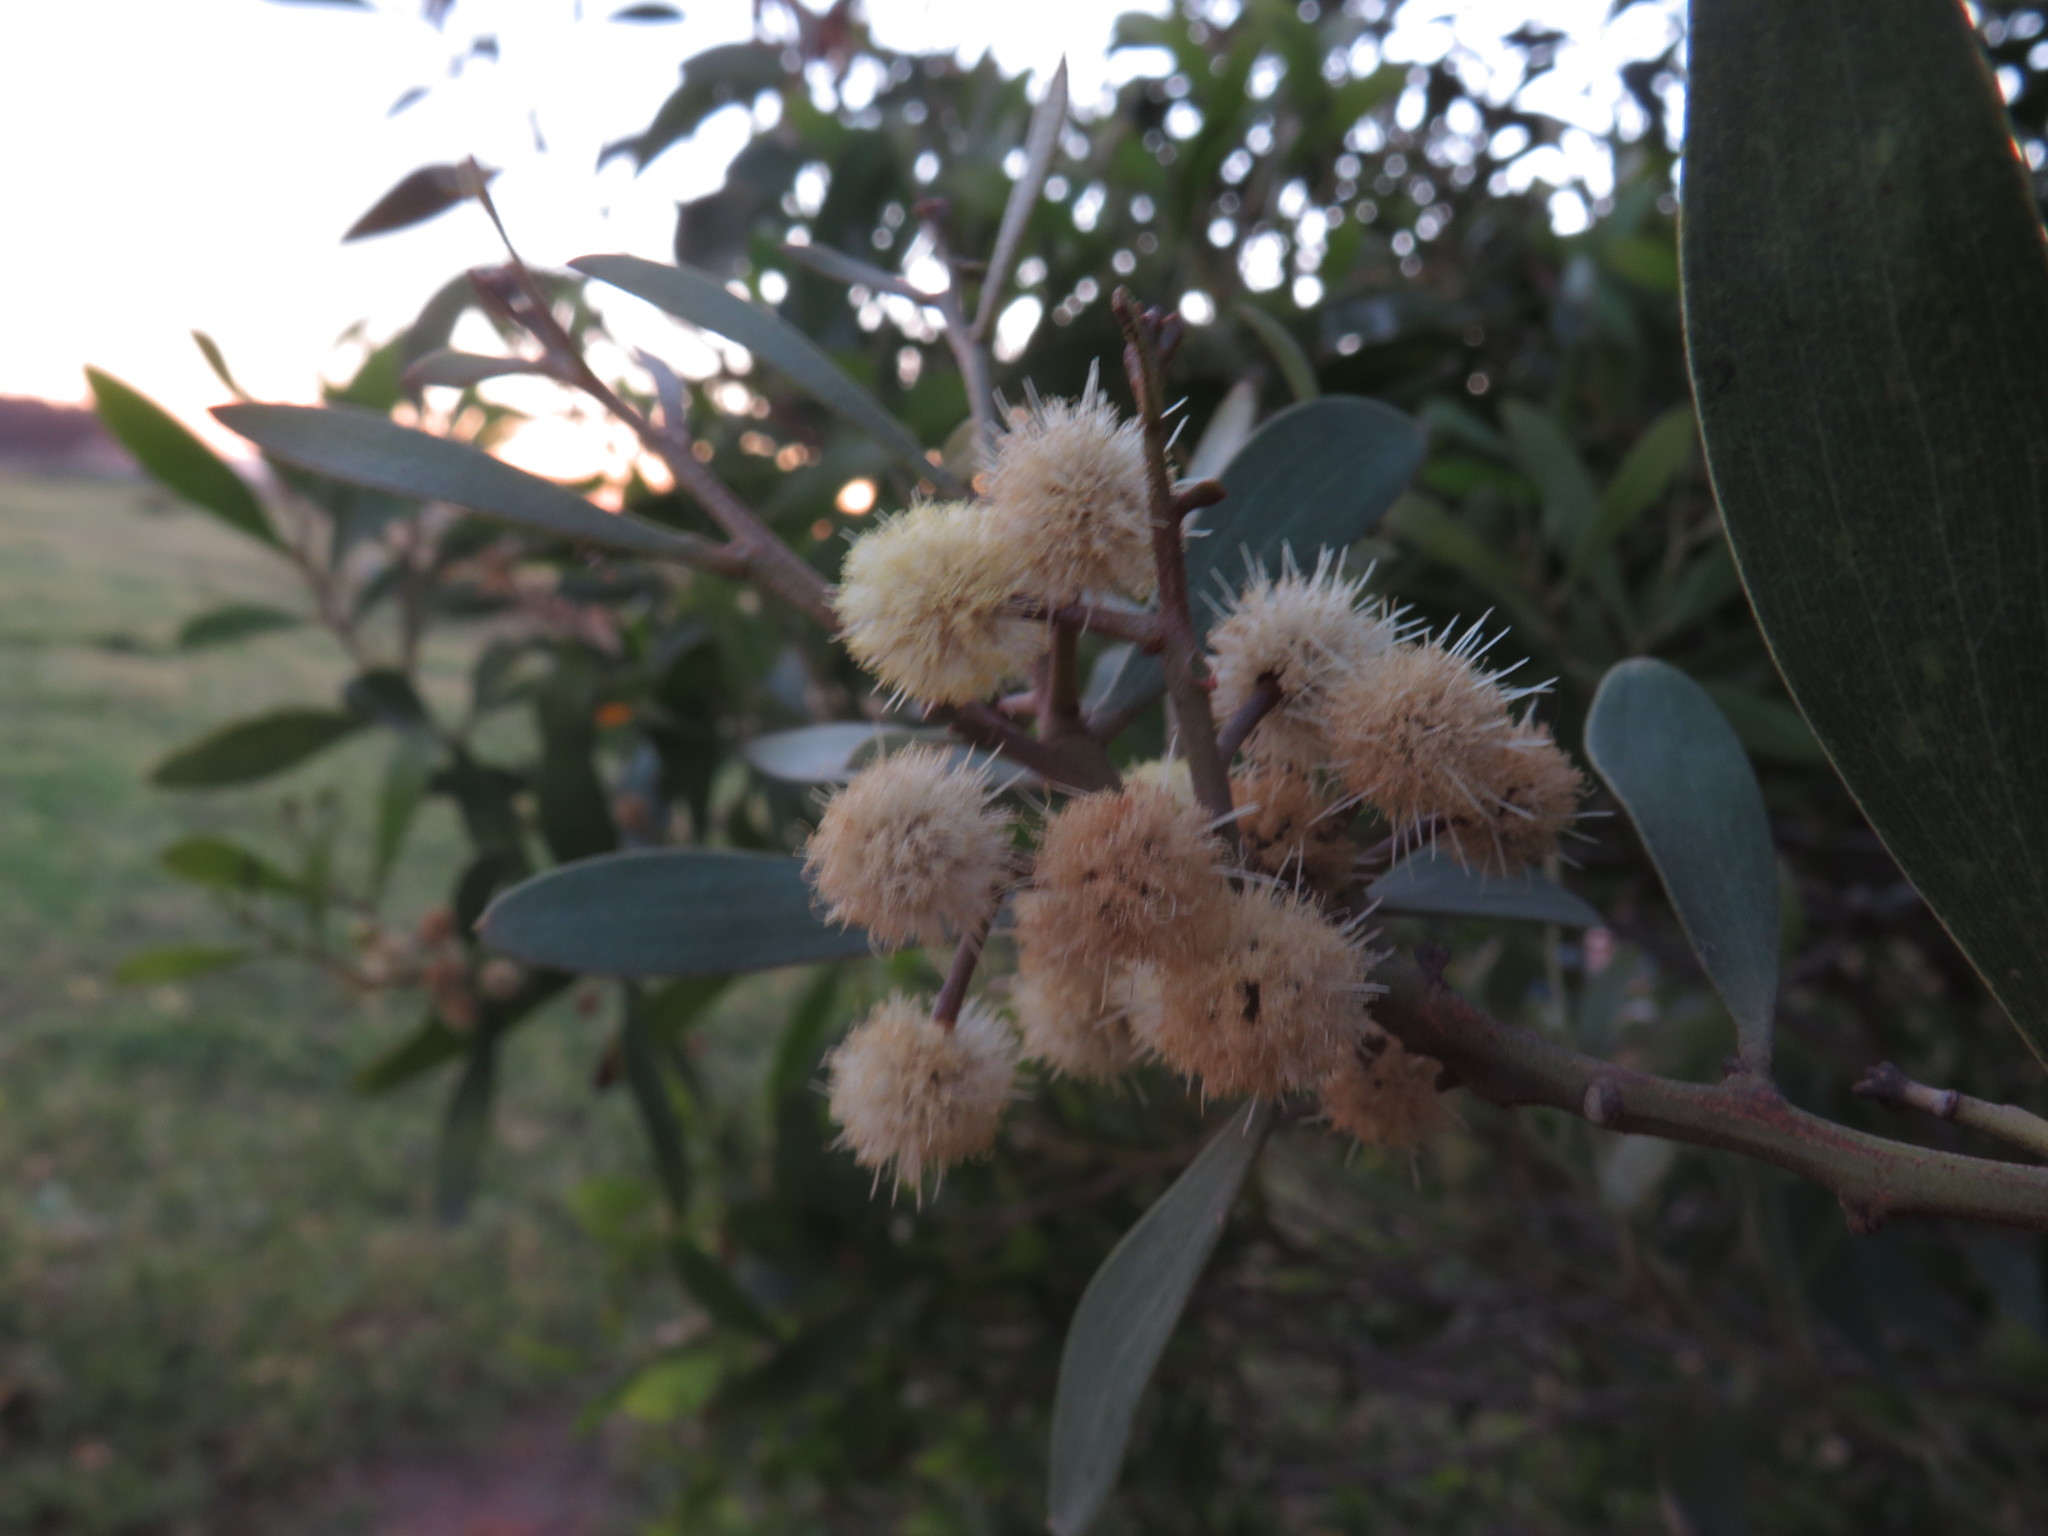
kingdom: Plantae
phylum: Tracheophyta
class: Magnoliopsida
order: Fabales
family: Fabaceae
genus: Acacia
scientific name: Acacia melanoxylon
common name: Blackwood
